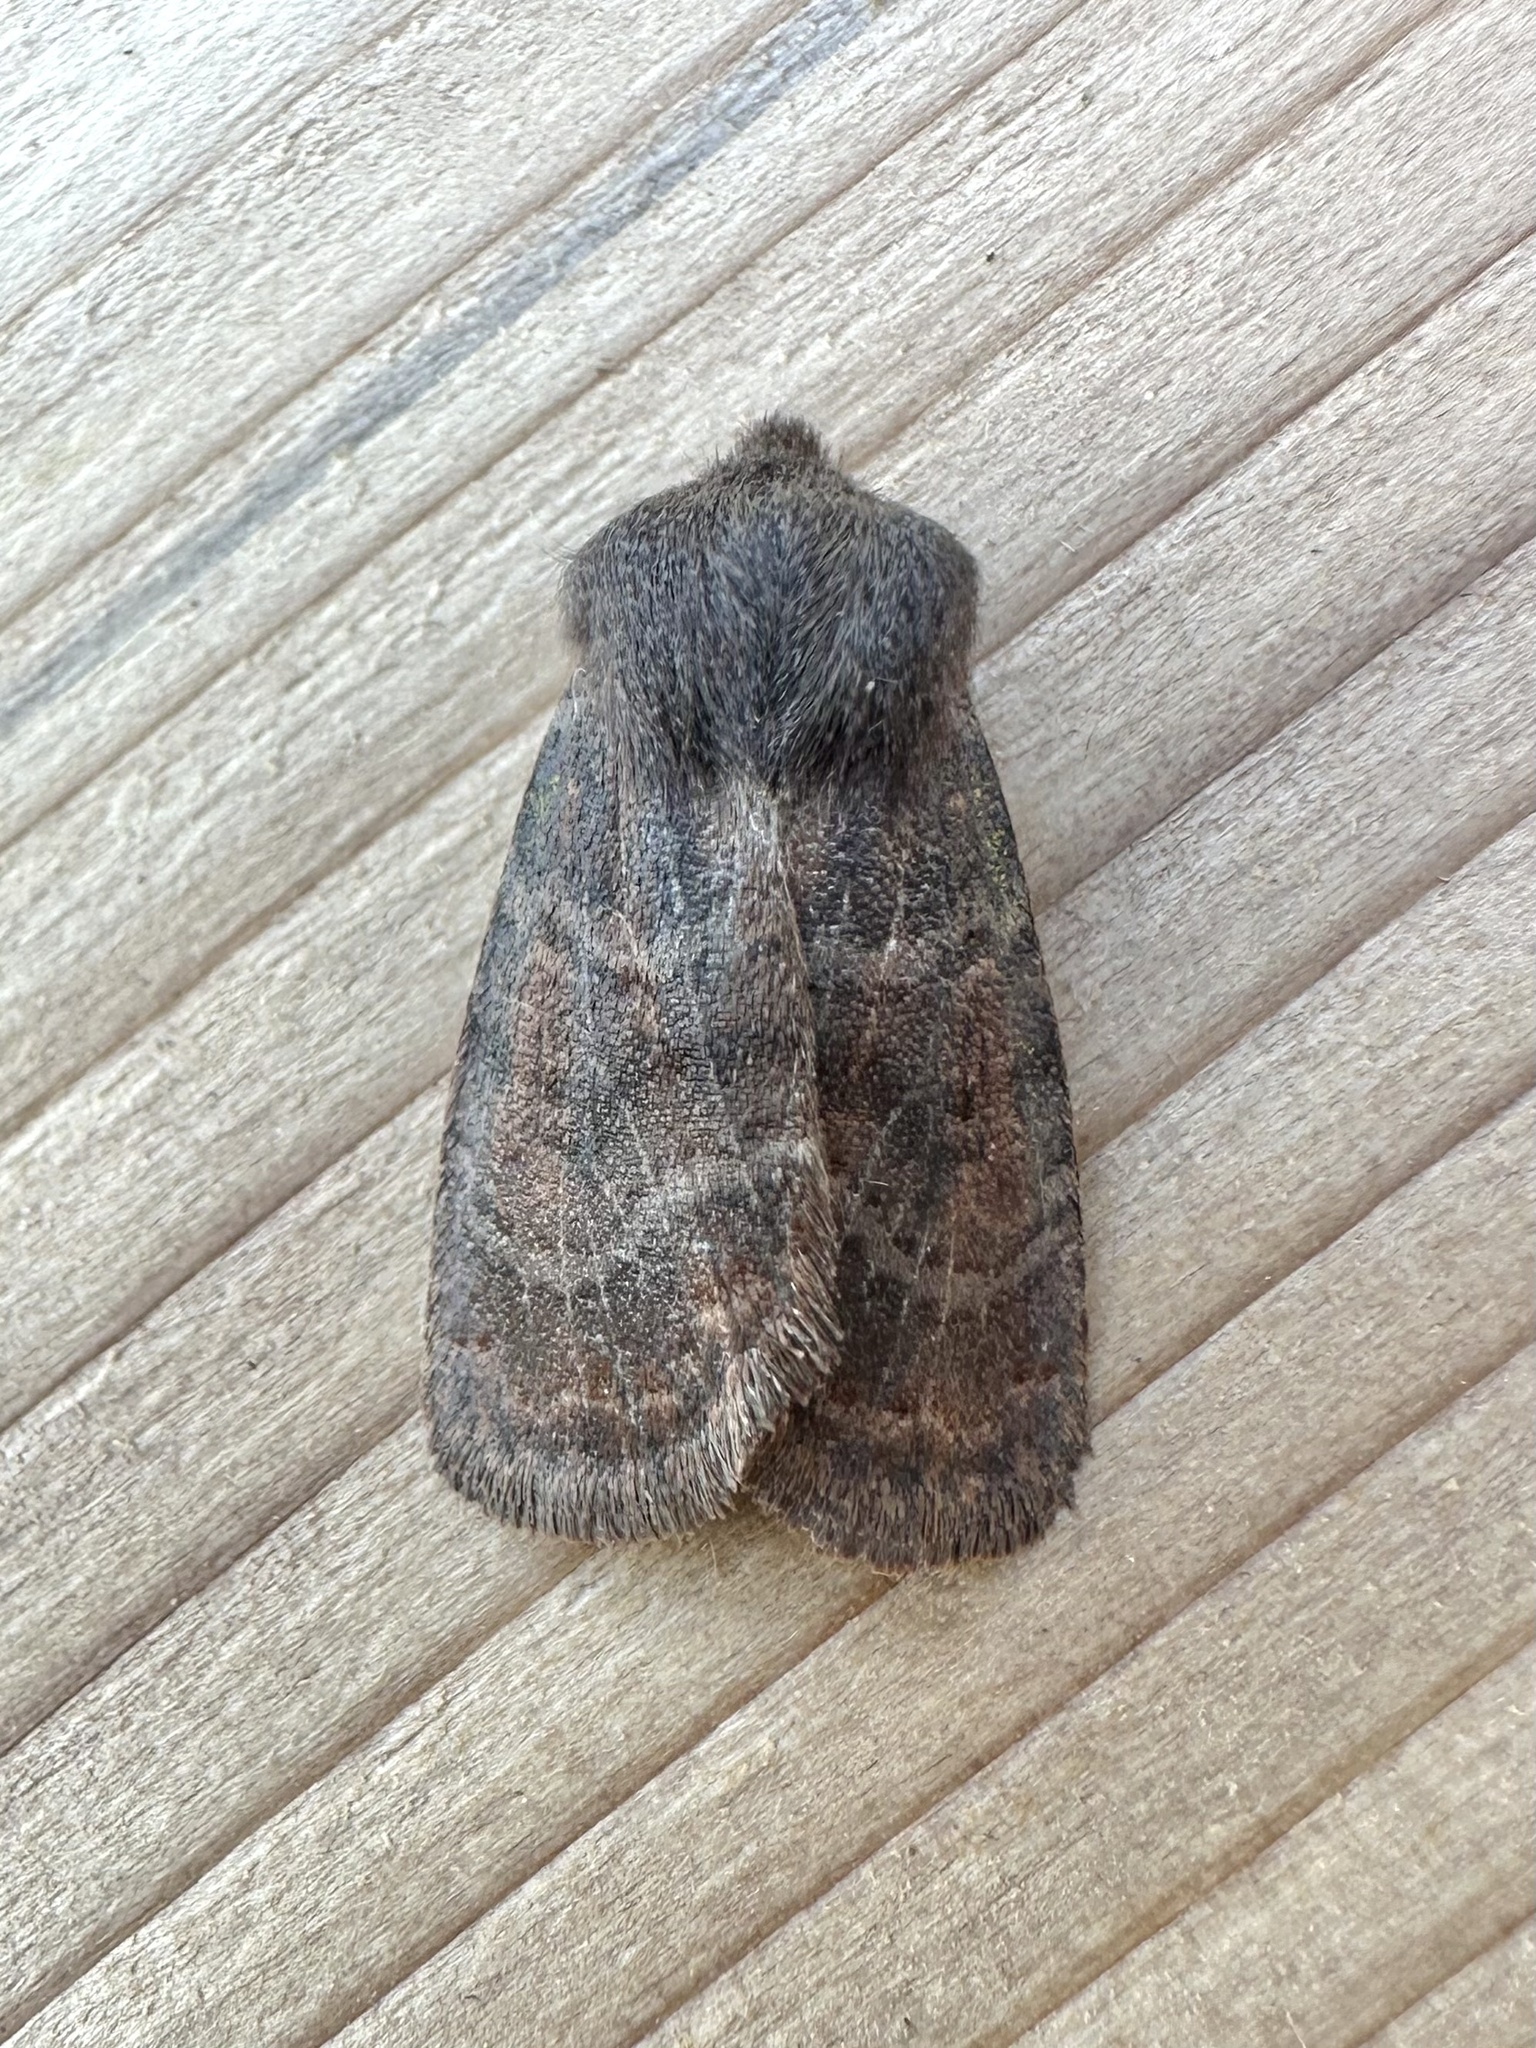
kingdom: Animalia
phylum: Arthropoda
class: Insecta
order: Lepidoptera
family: Noctuidae
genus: Homoglaea
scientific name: Homoglaea hircina
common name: Goat sallow
